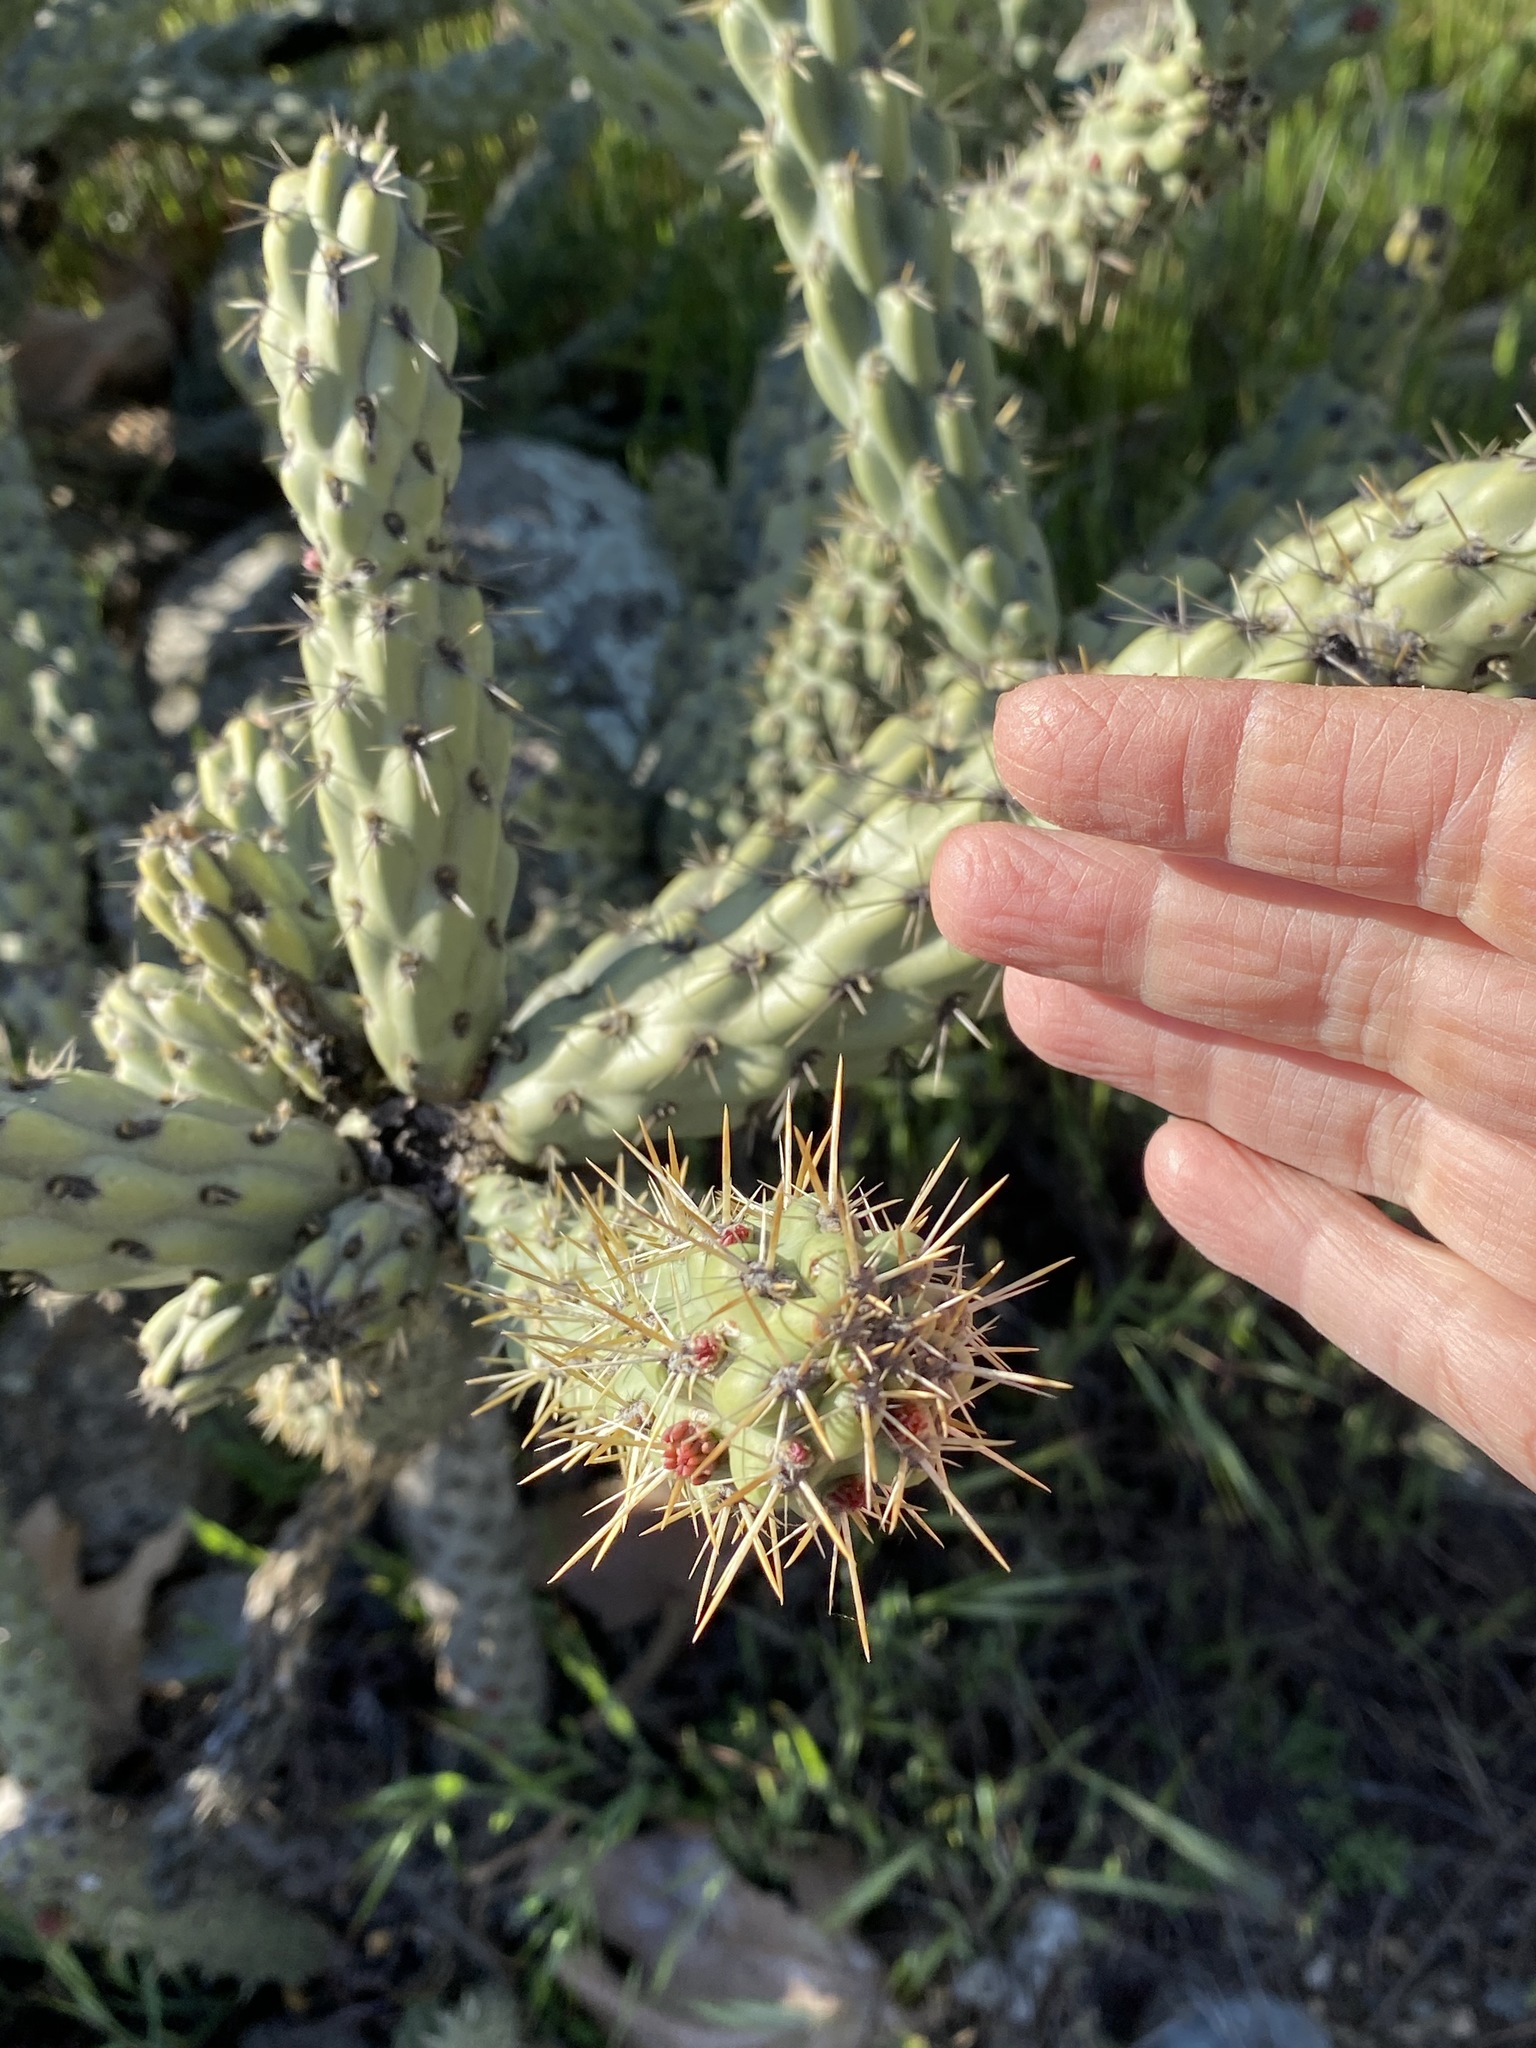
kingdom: Plantae
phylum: Tracheophyta
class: Magnoliopsida
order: Caryophyllales
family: Cactaceae
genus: Cylindropuntia
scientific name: Cylindropuntia bernardina
